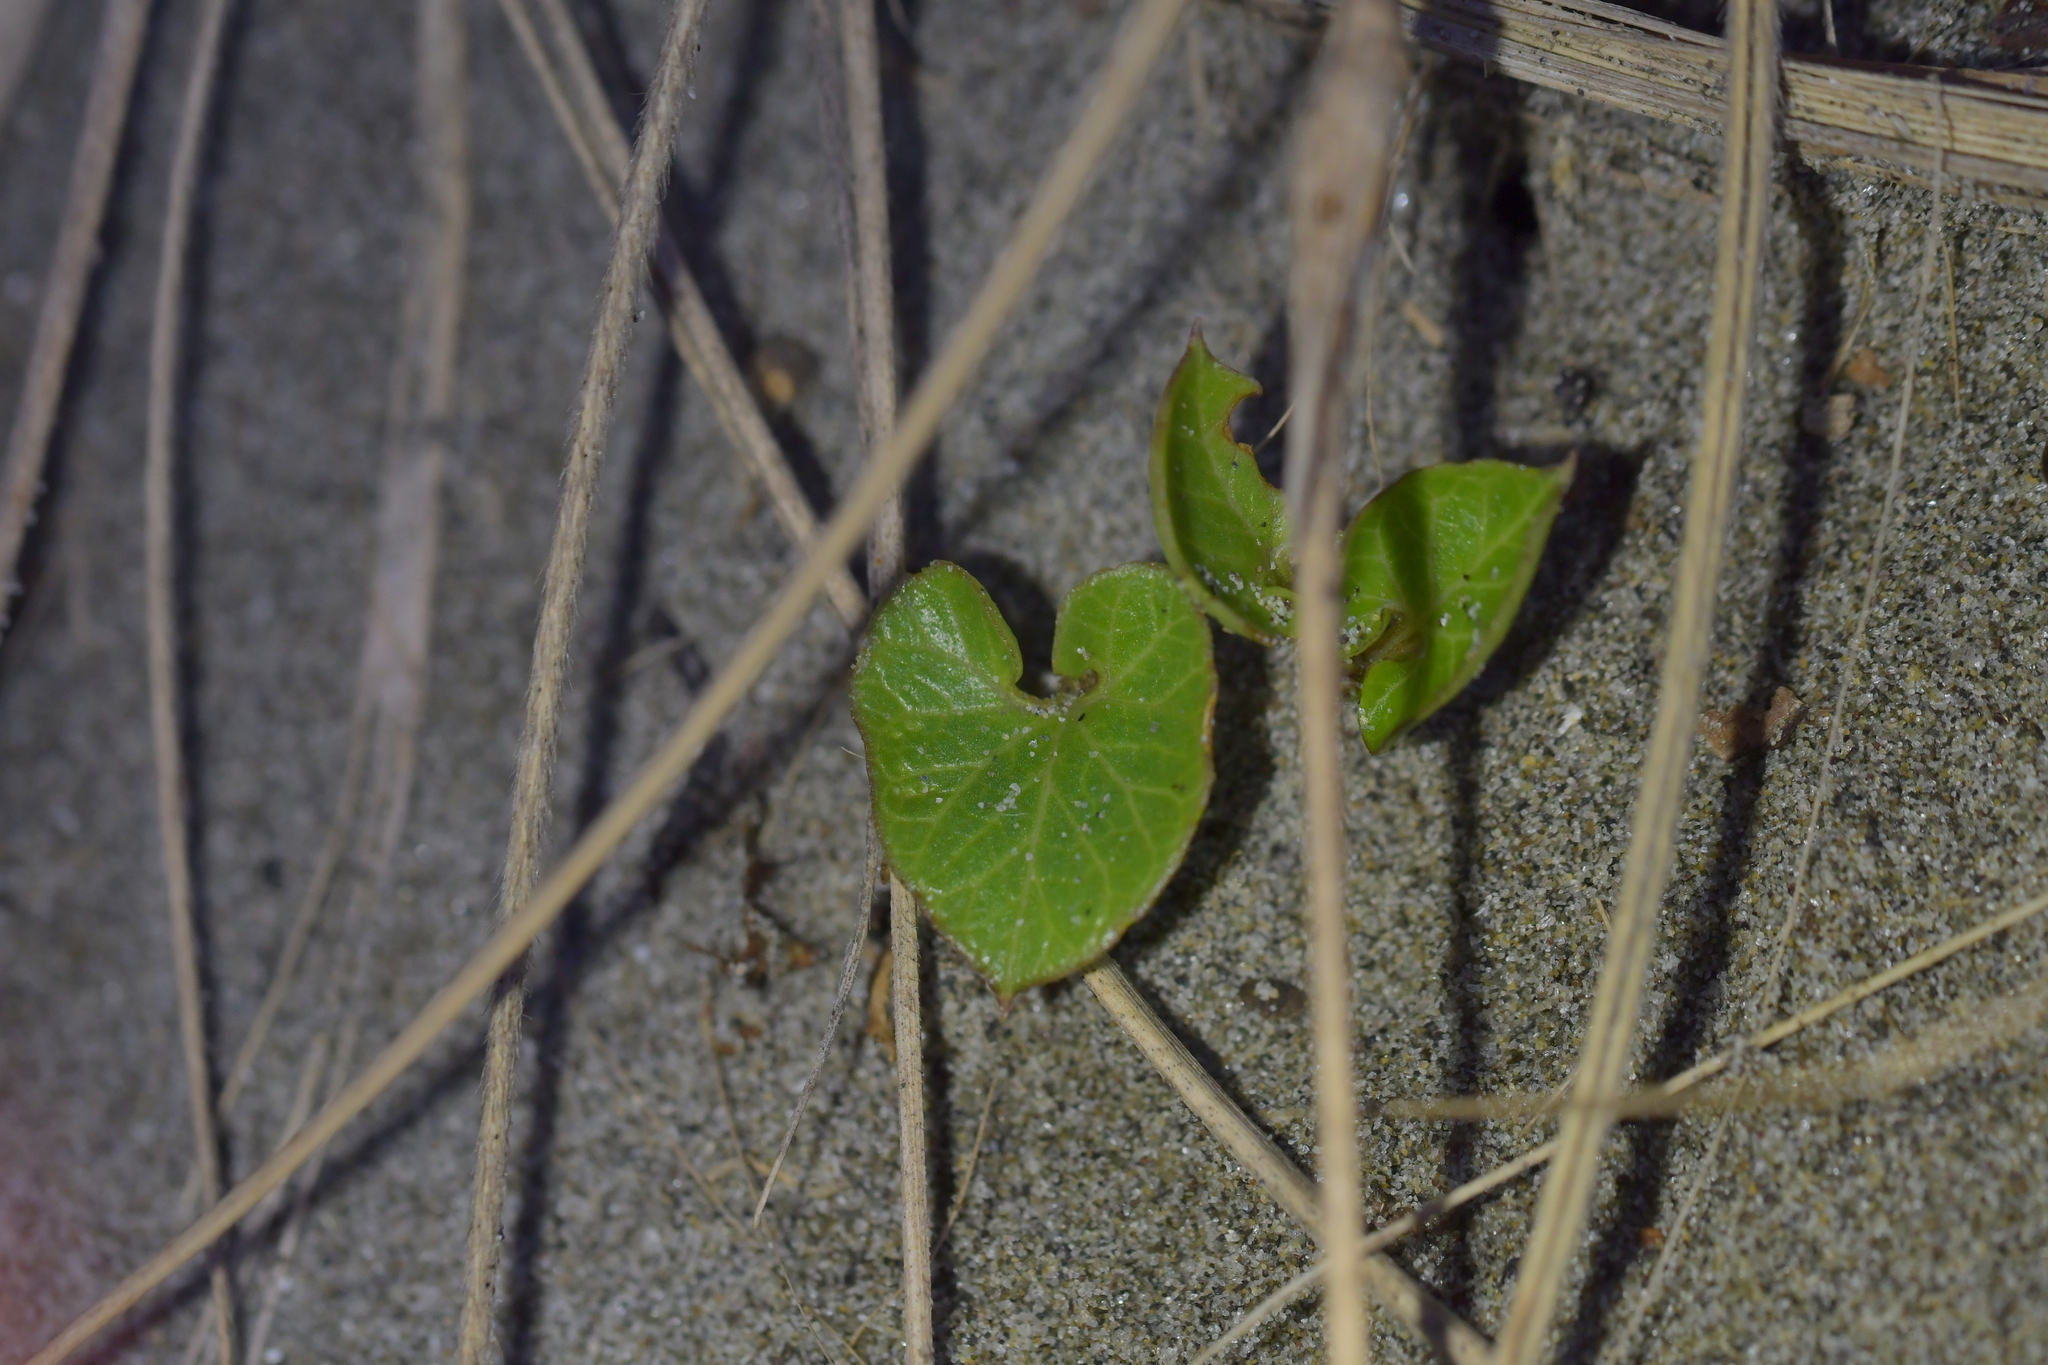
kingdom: Plantae
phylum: Tracheophyta
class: Magnoliopsida
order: Solanales
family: Convolvulaceae
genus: Calystegia
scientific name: Calystegia soldanella
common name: Sea bindweed
